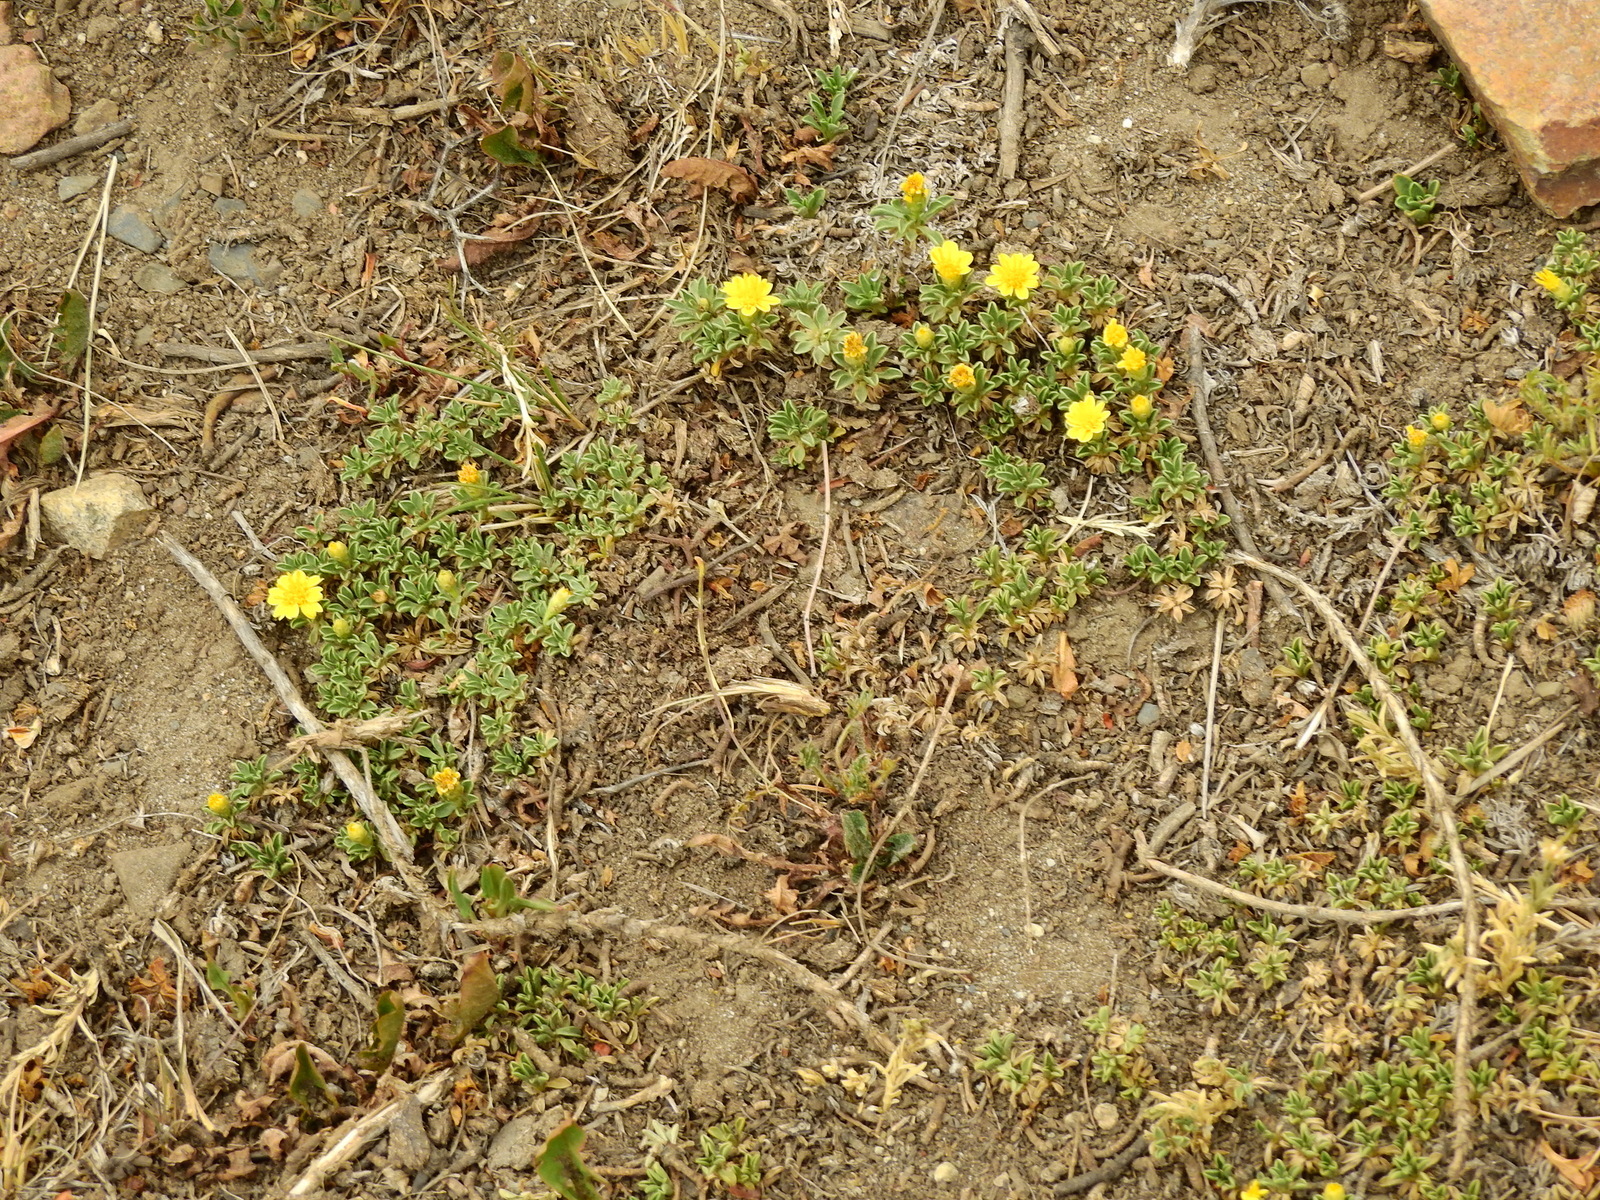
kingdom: Plantae
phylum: Tracheophyta
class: Magnoliopsida
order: Asterales
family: Asteraceae
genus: Gutierrezia
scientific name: Gutierrezia baccharoides
